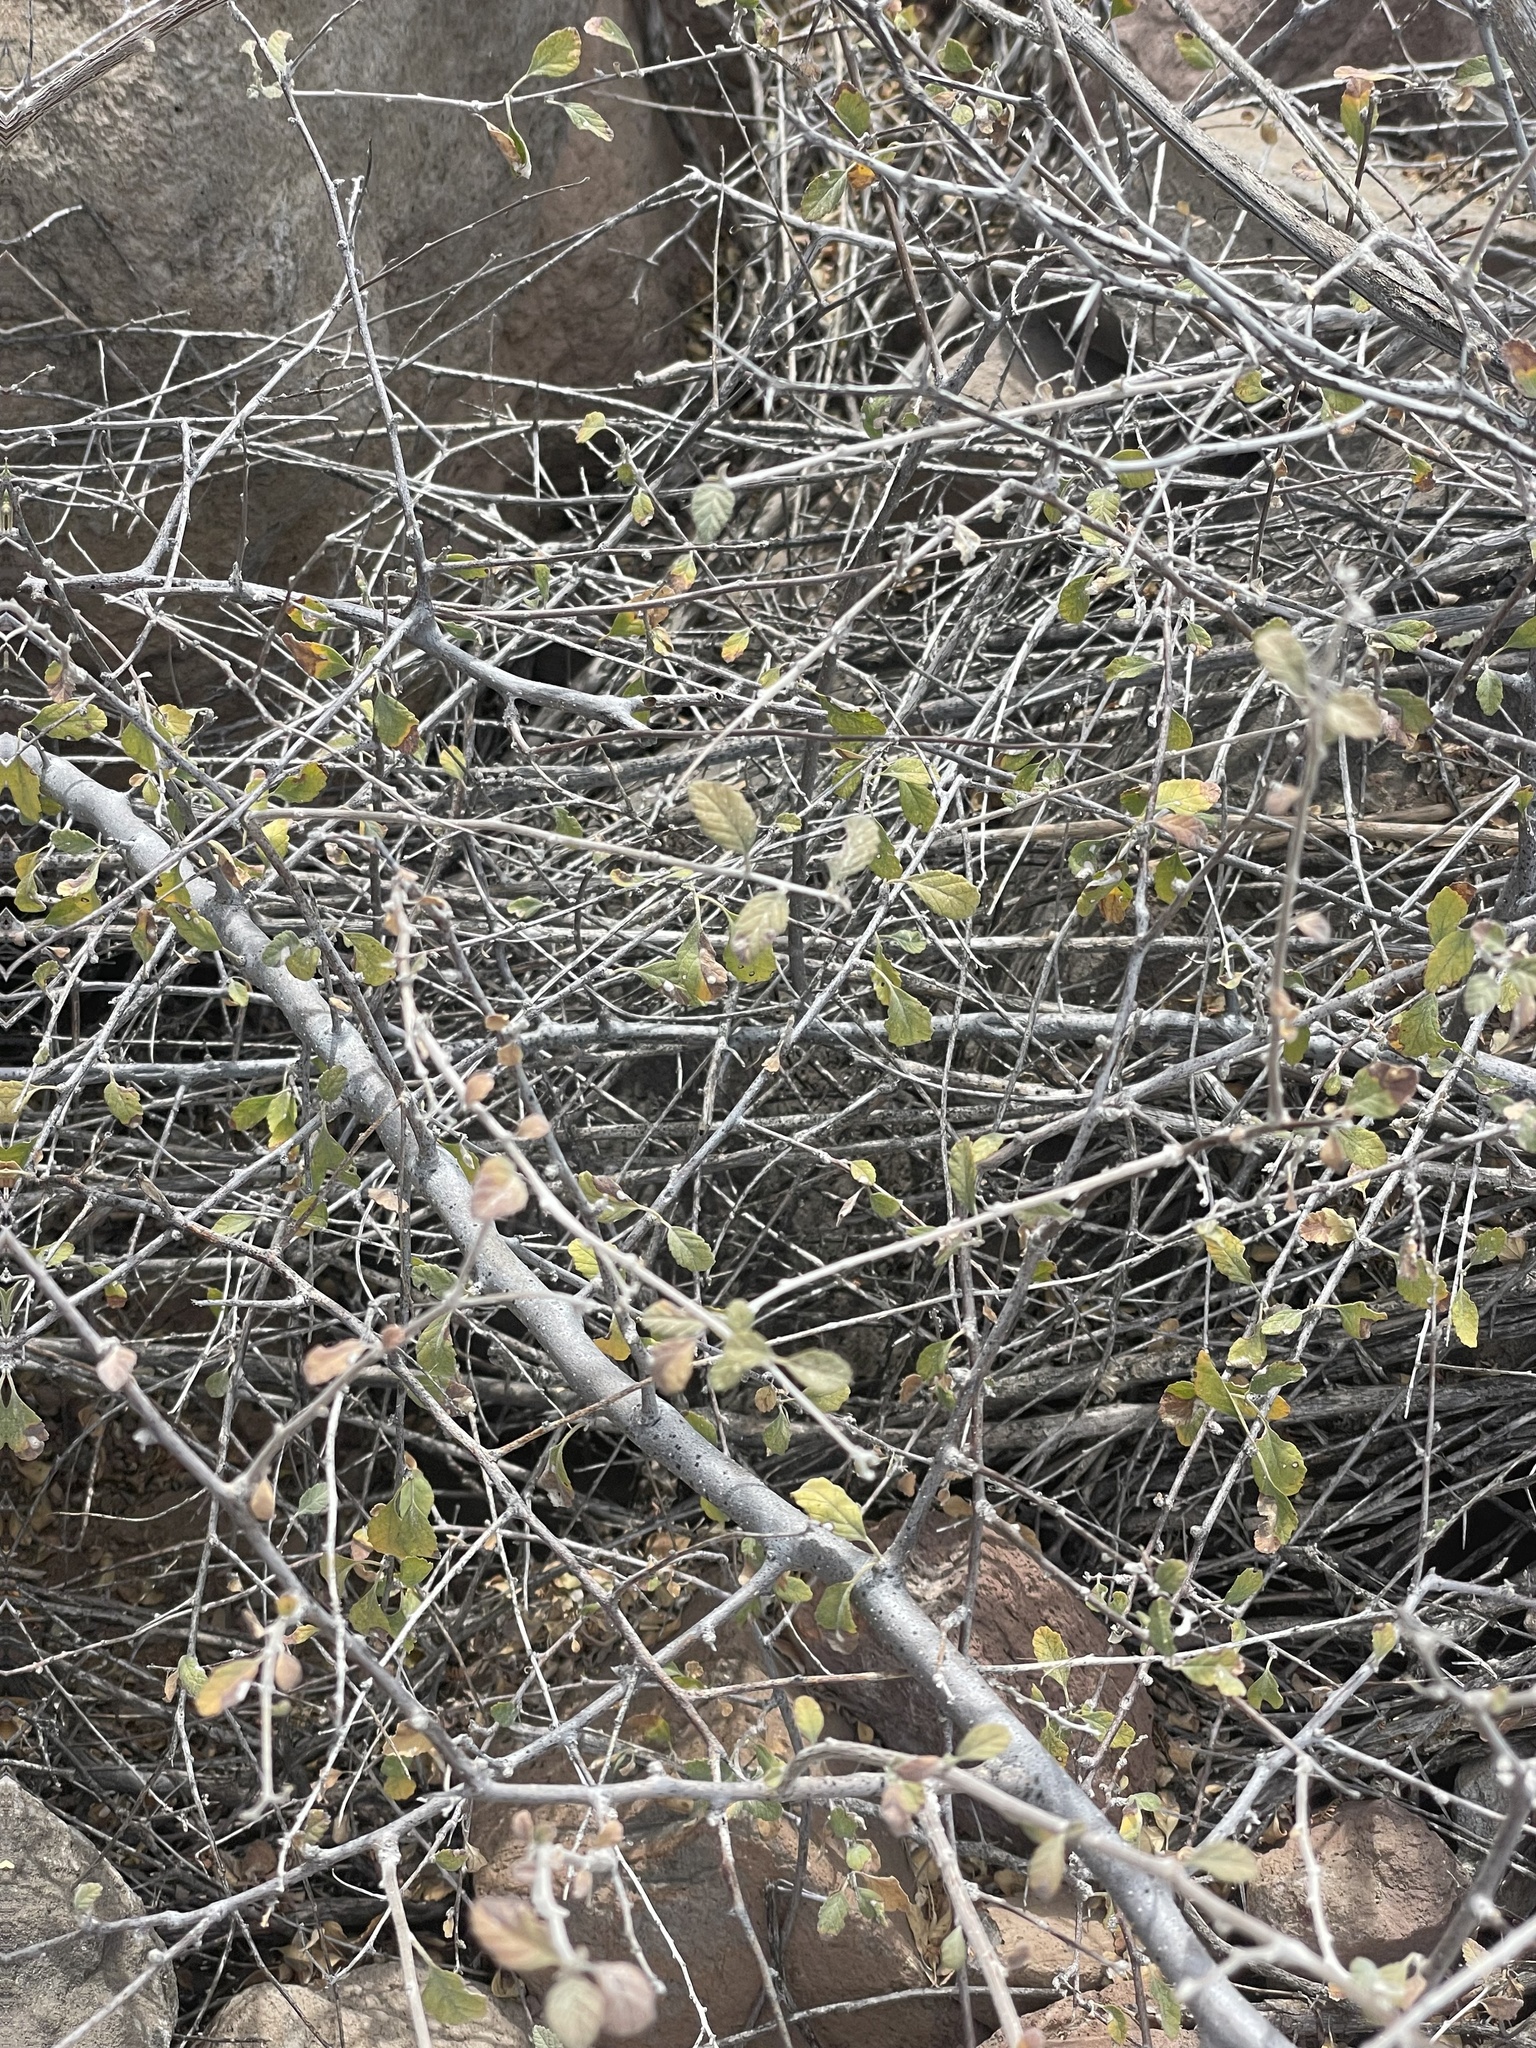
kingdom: Plantae
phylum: Tracheophyta
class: Magnoliopsida
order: Boraginales
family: Cordiaceae
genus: Cordia
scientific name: Cordia parvifolia
